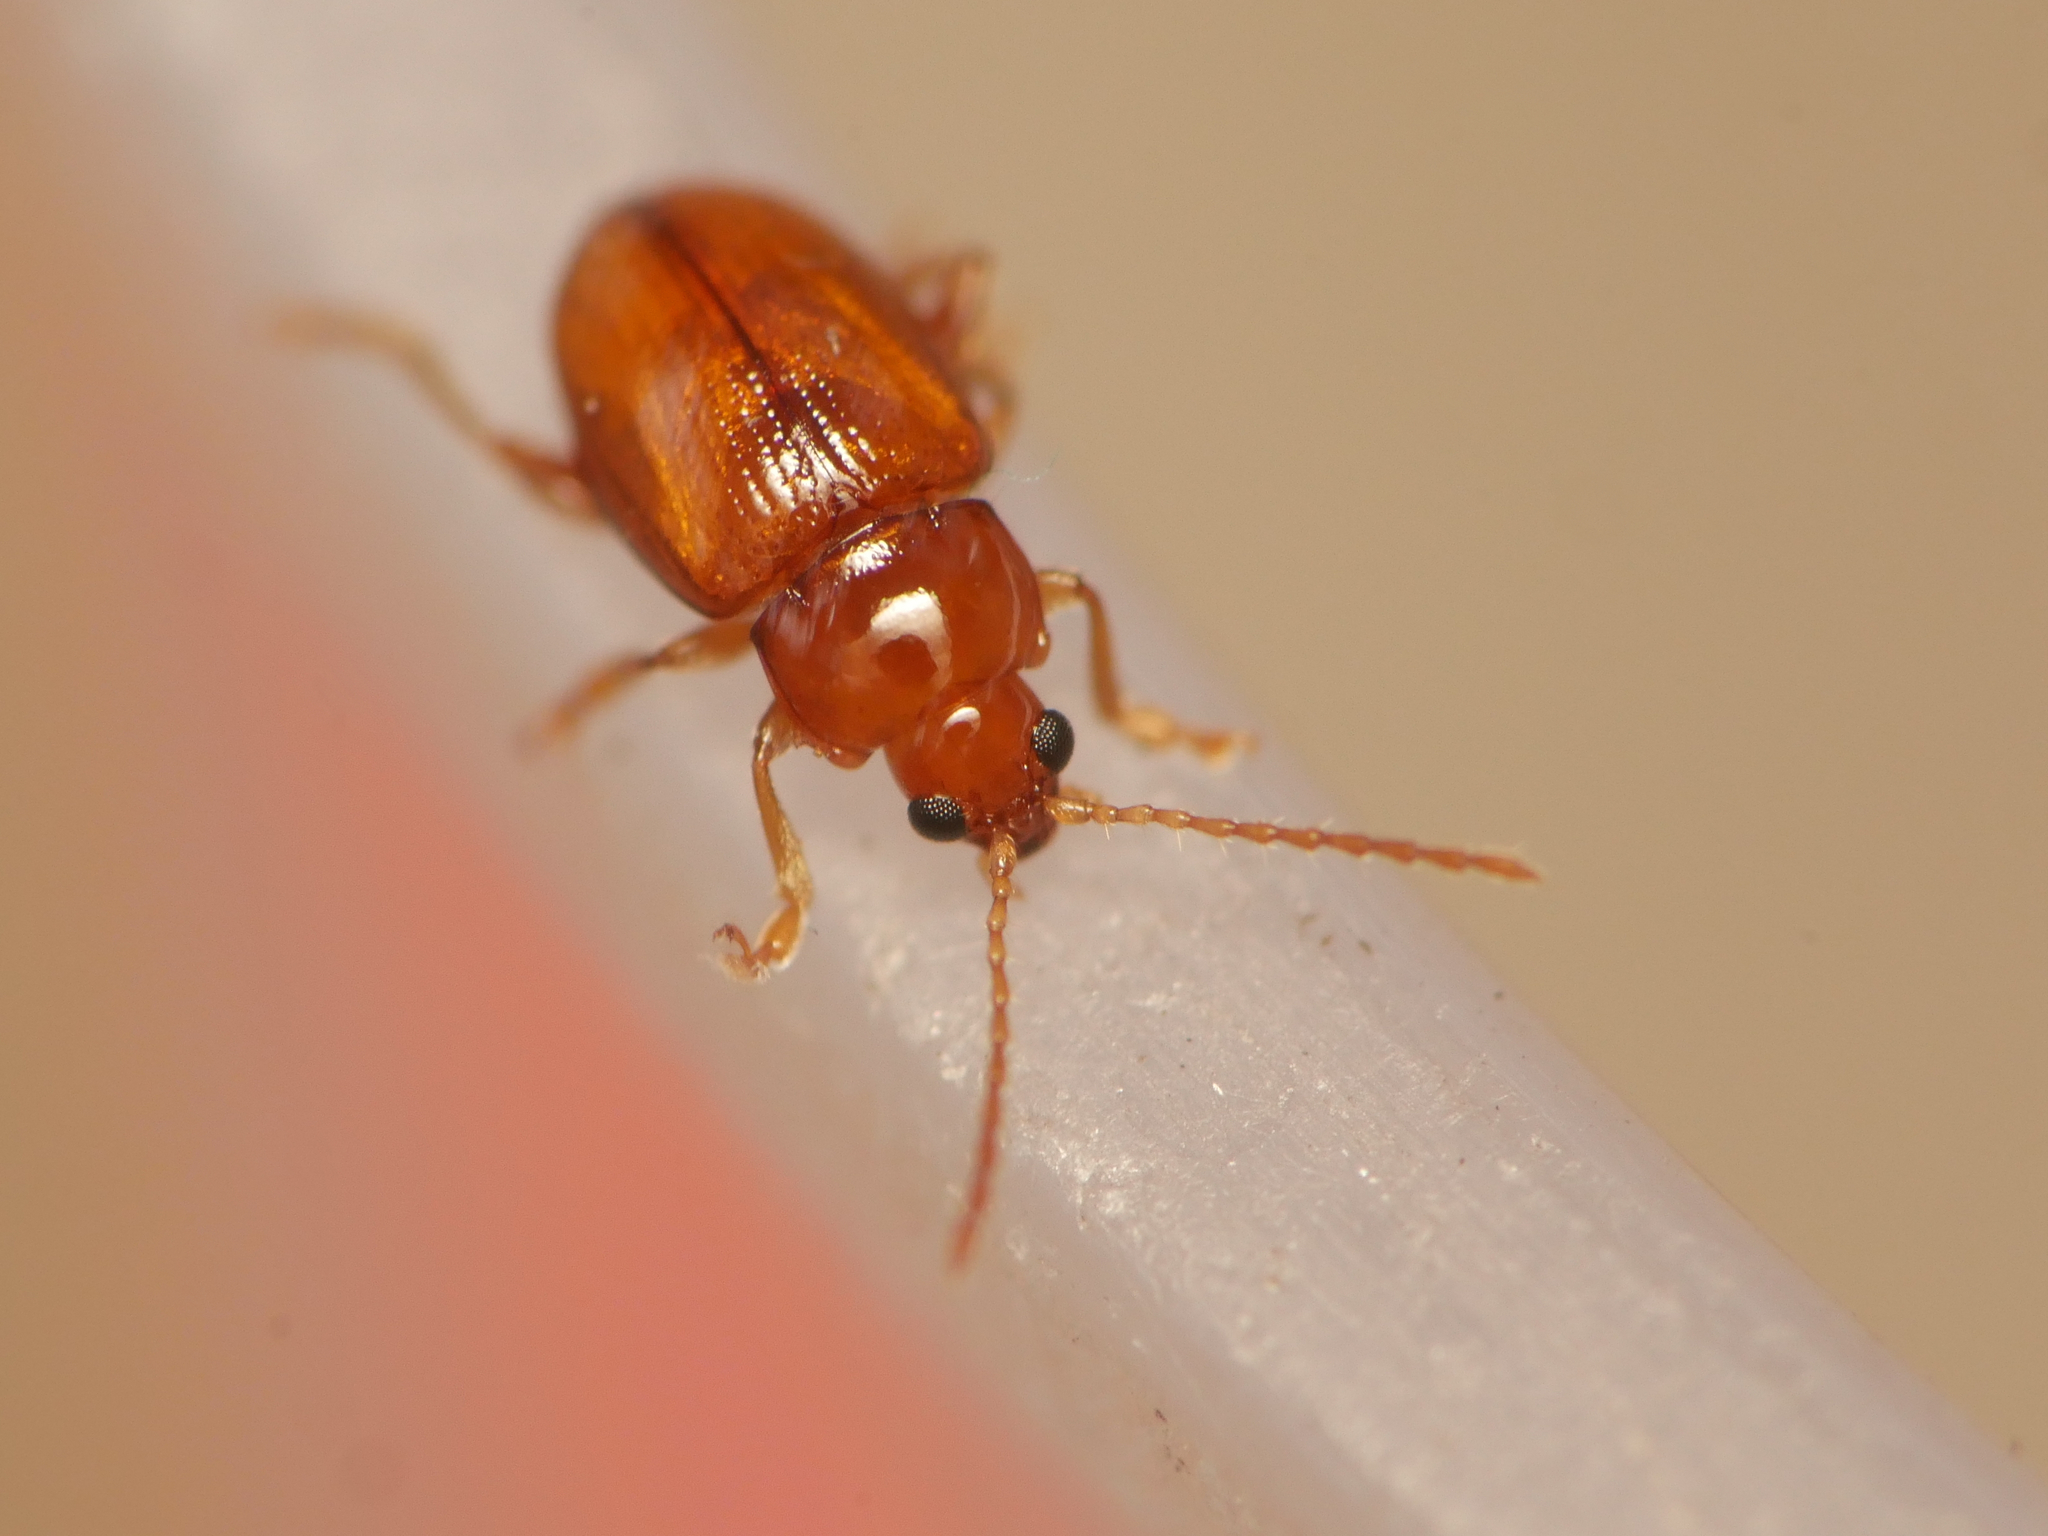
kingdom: Animalia
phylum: Arthropoda
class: Insecta
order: Coleoptera
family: Chrysomelidae
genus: Neocrepidodera
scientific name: Neocrepidodera ferruginea
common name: Wheat flea beetle
